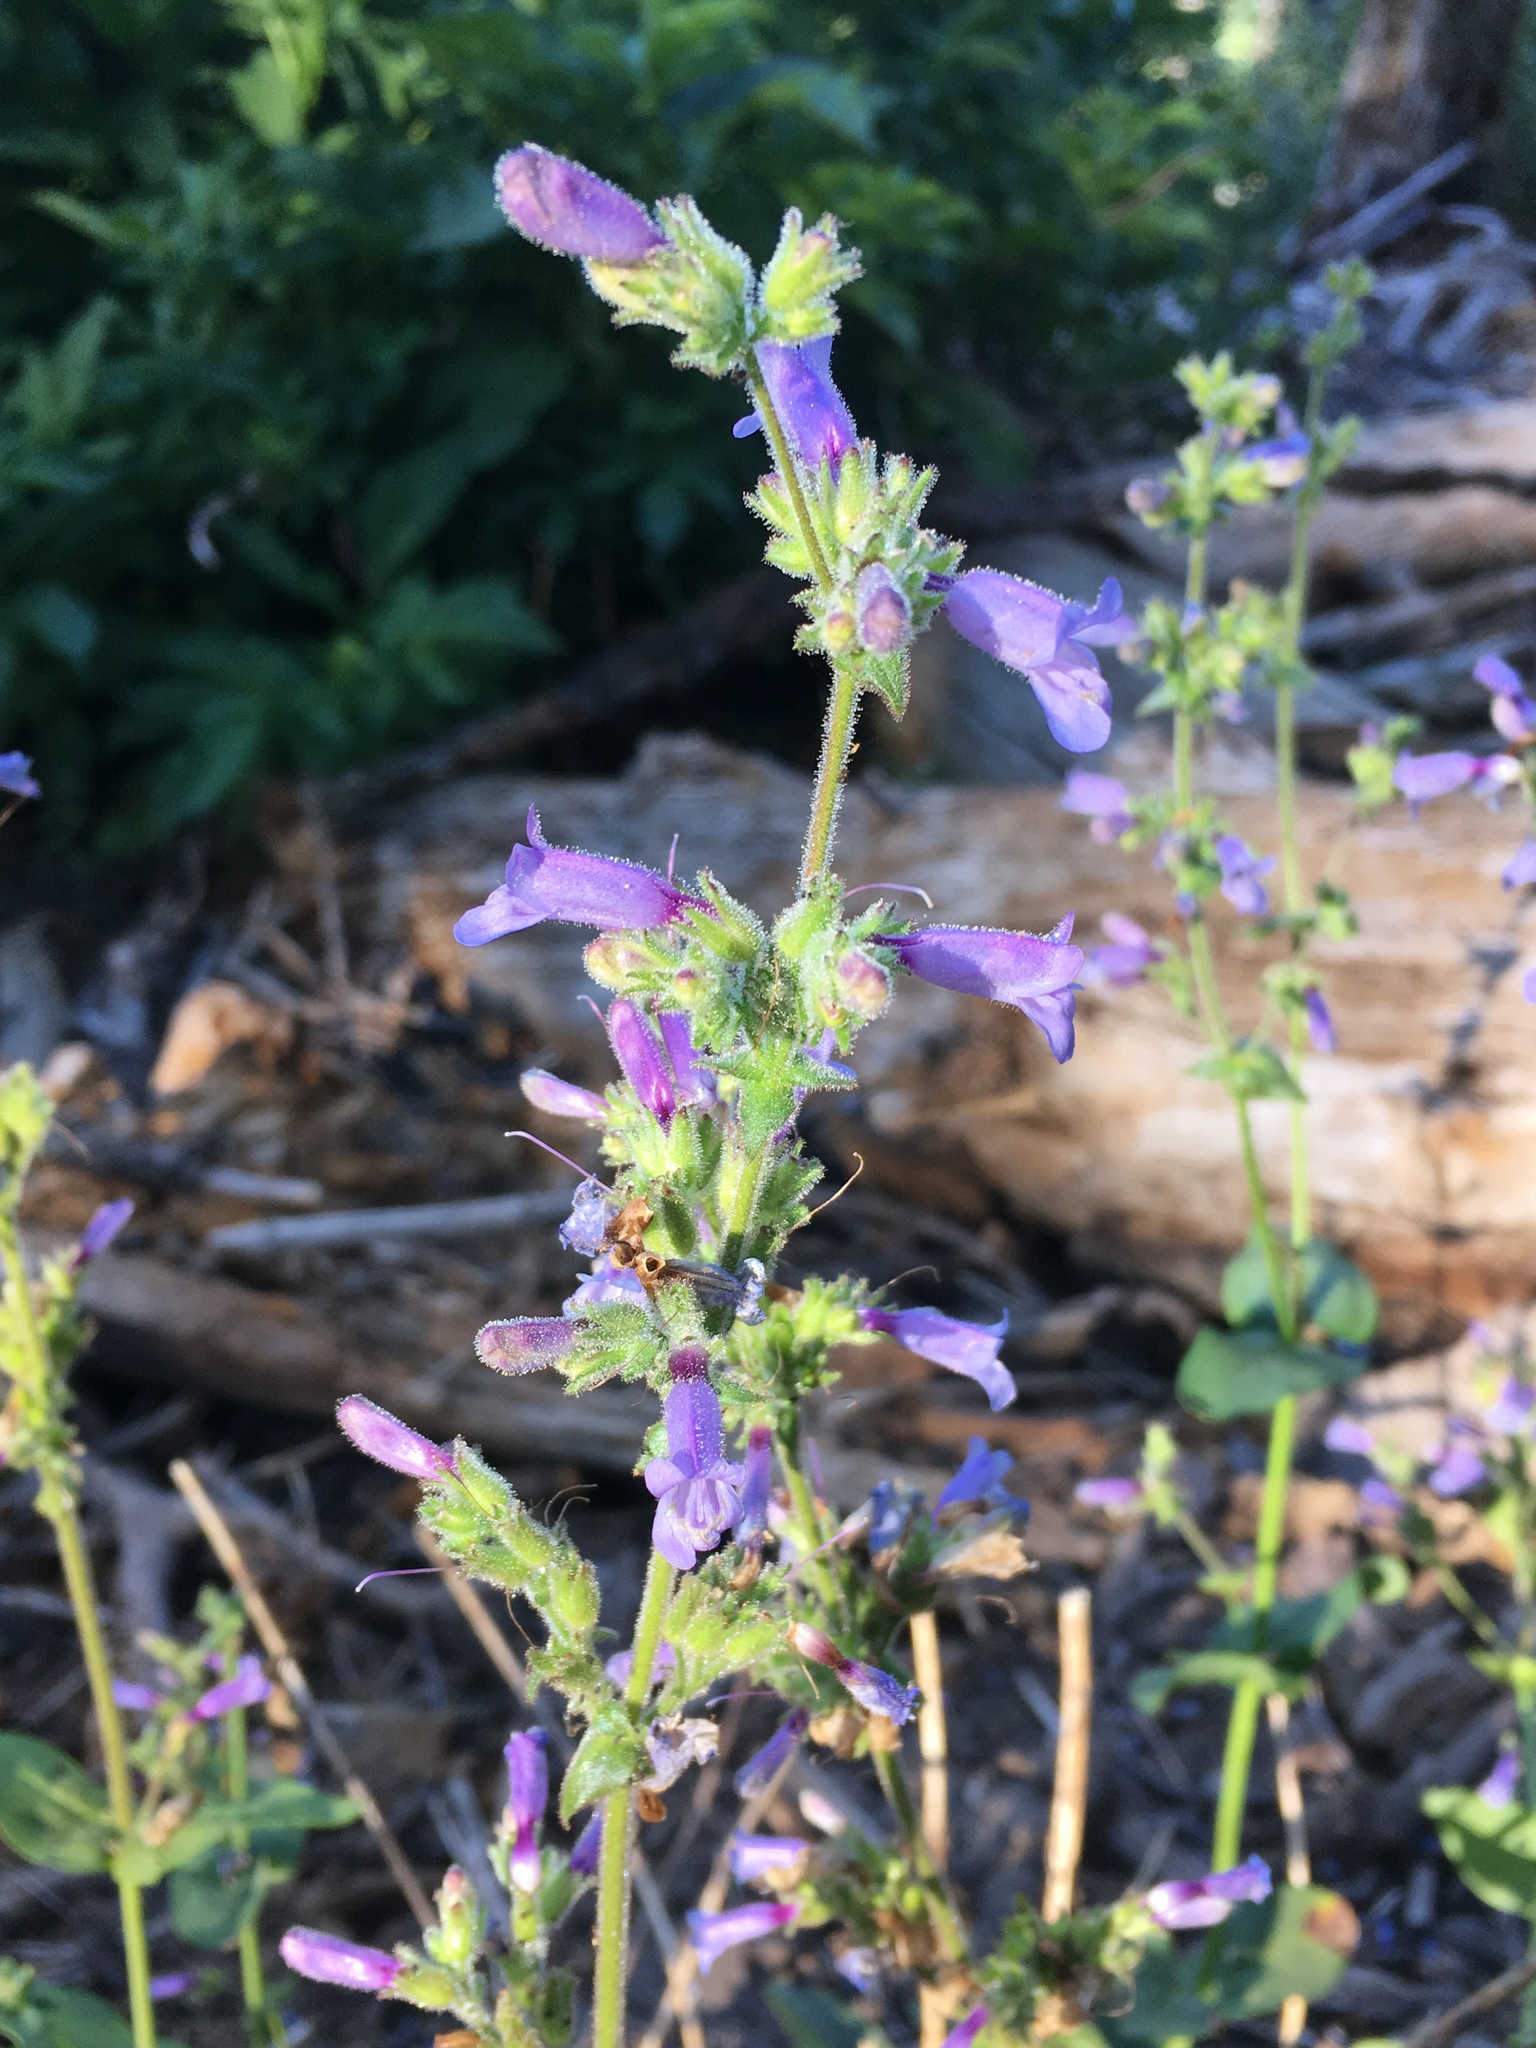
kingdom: Plantae
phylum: Tracheophyta
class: Magnoliopsida
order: Lamiales
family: Plantaginaceae
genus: Penstemon
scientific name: Penstemon anguineus
